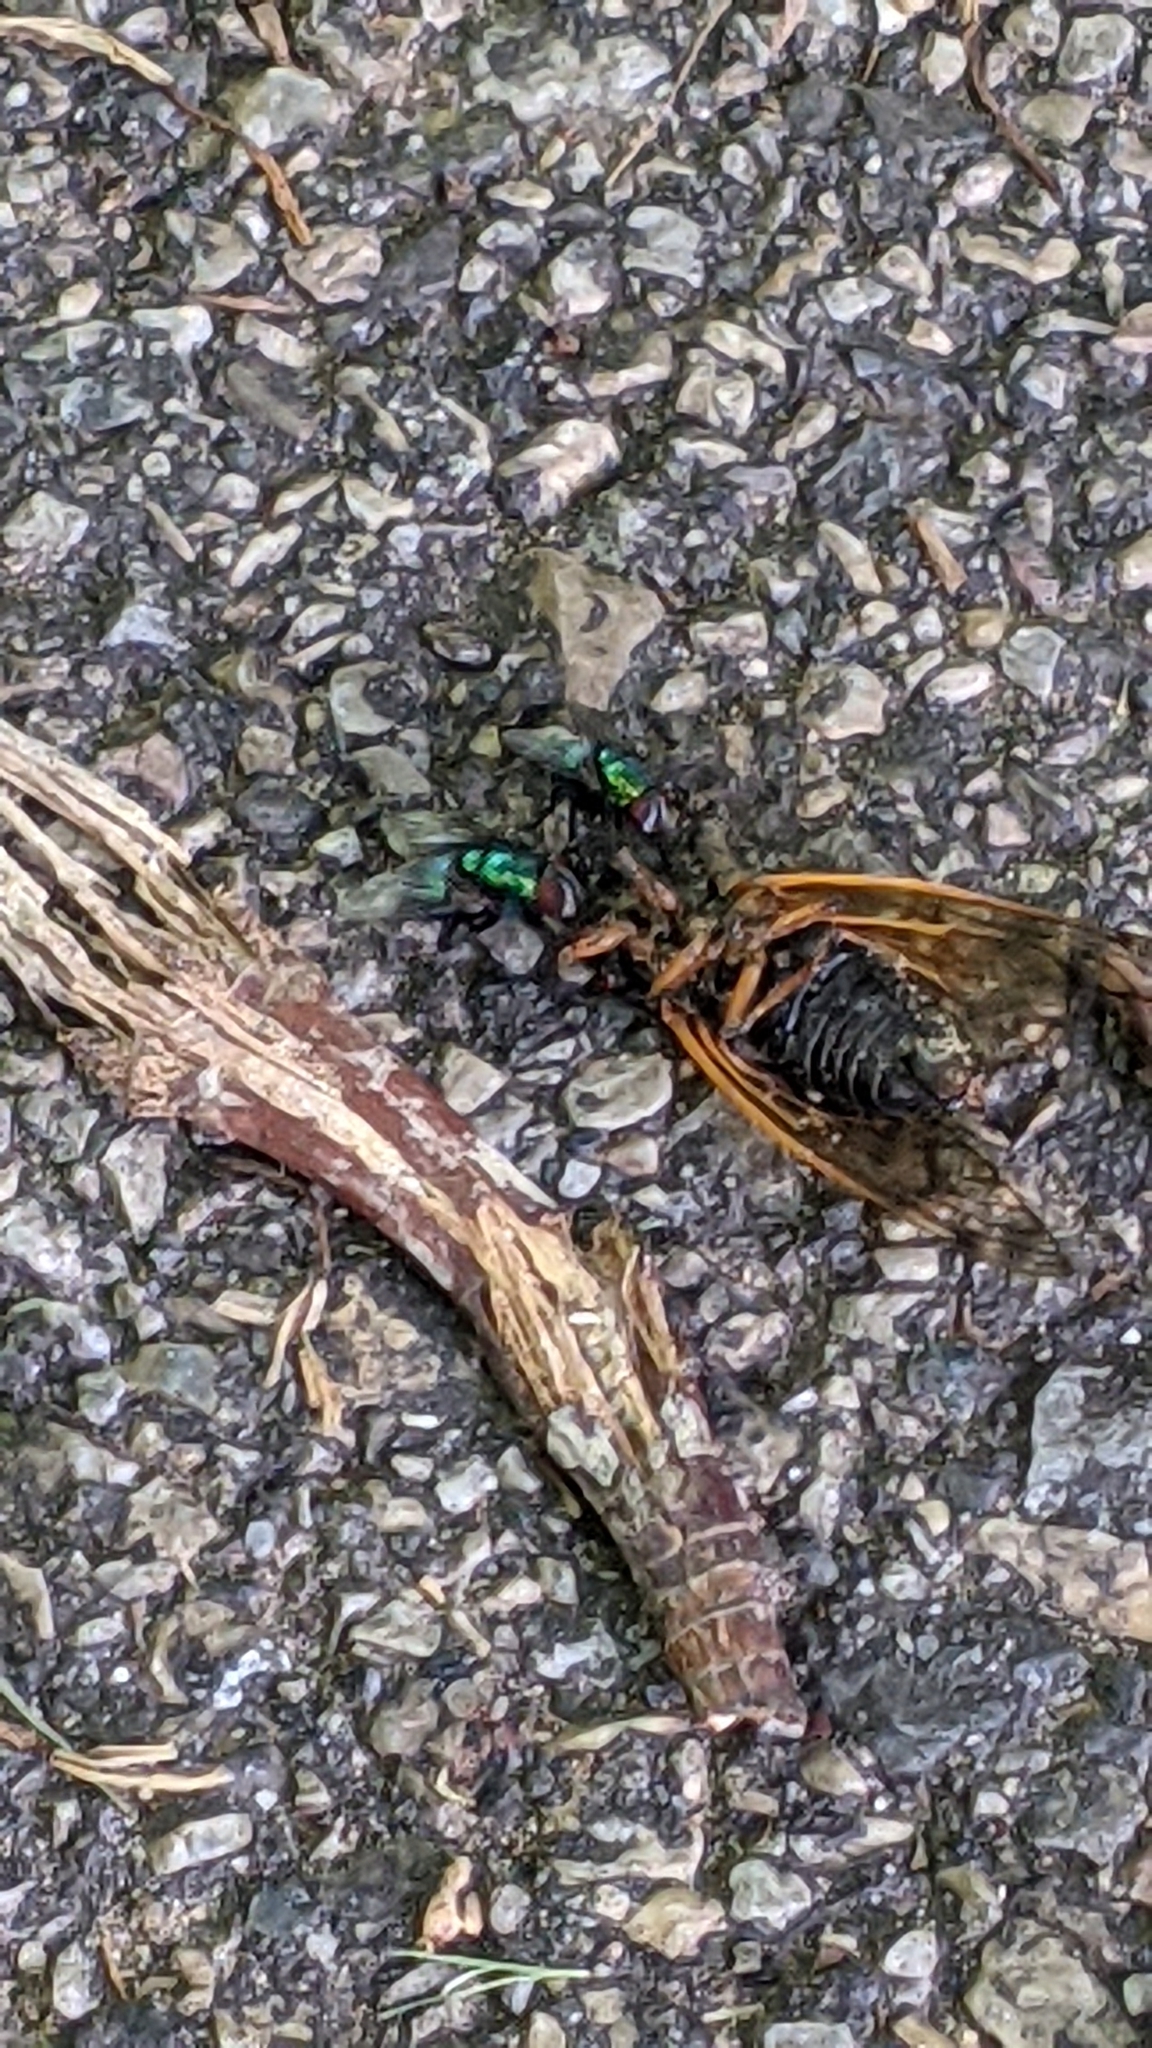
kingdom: Animalia
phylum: Arthropoda
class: Insecta
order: Diptera
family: Calliphoridae
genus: Lucilia
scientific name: Lucilia caeruleiviridis
